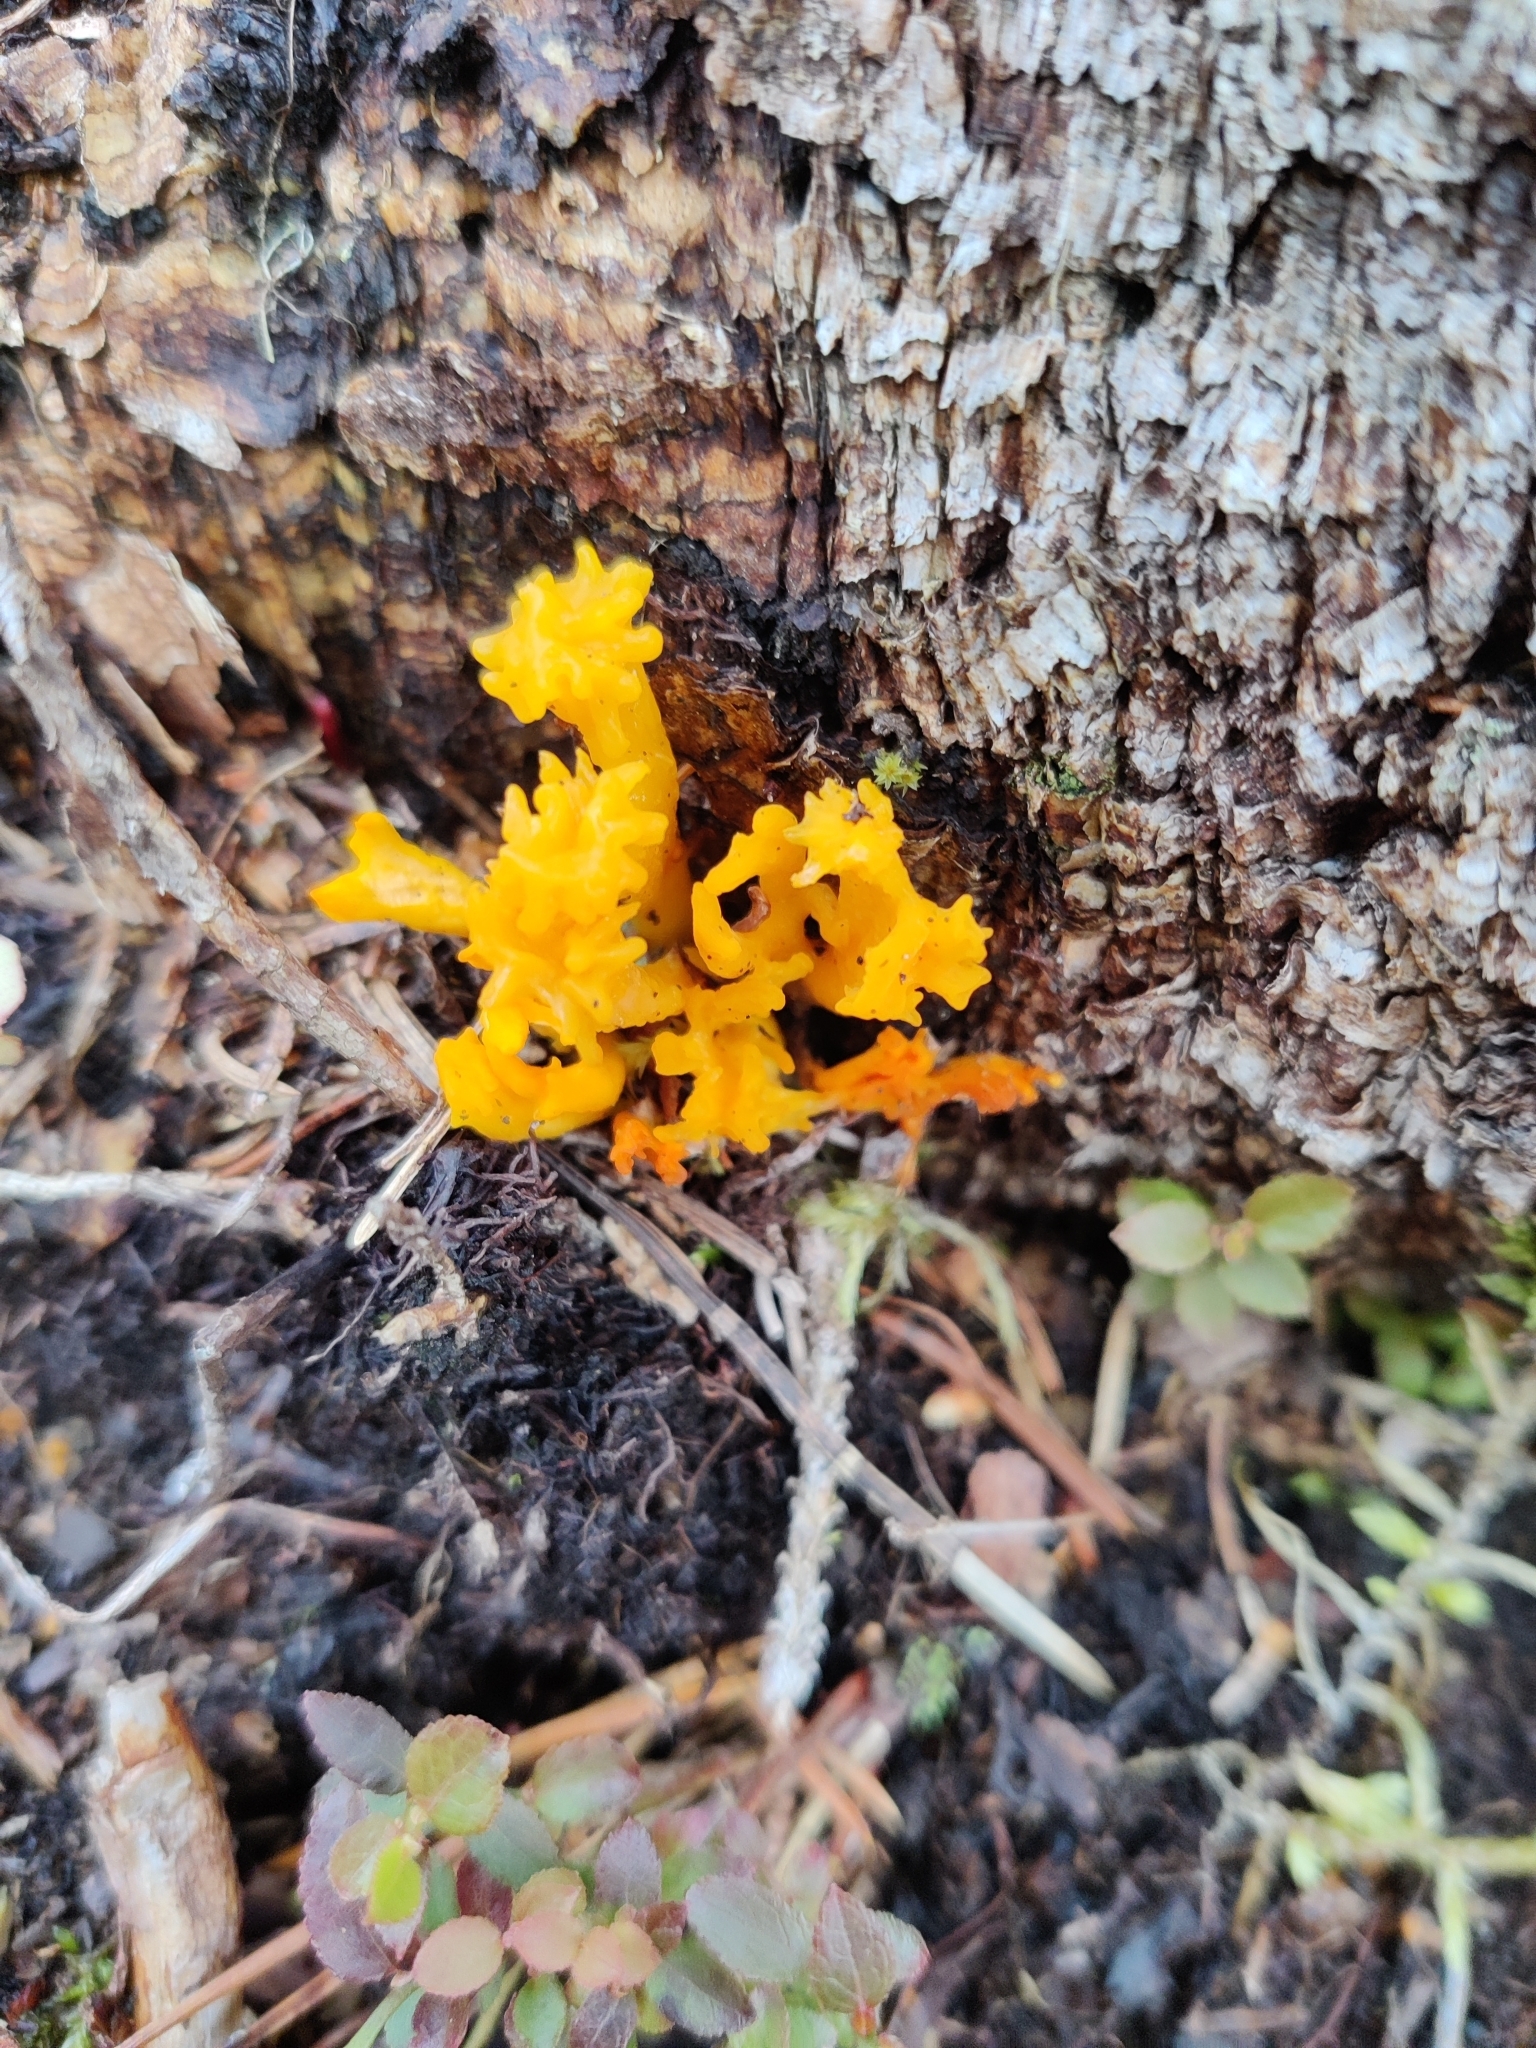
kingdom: Fungi
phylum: Basidiomycota
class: Dacrymycetes
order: Dacrymycetales
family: Dacrymycetaceae
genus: Calocera
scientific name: Calocera viscosa
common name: Yellow stagshorn
